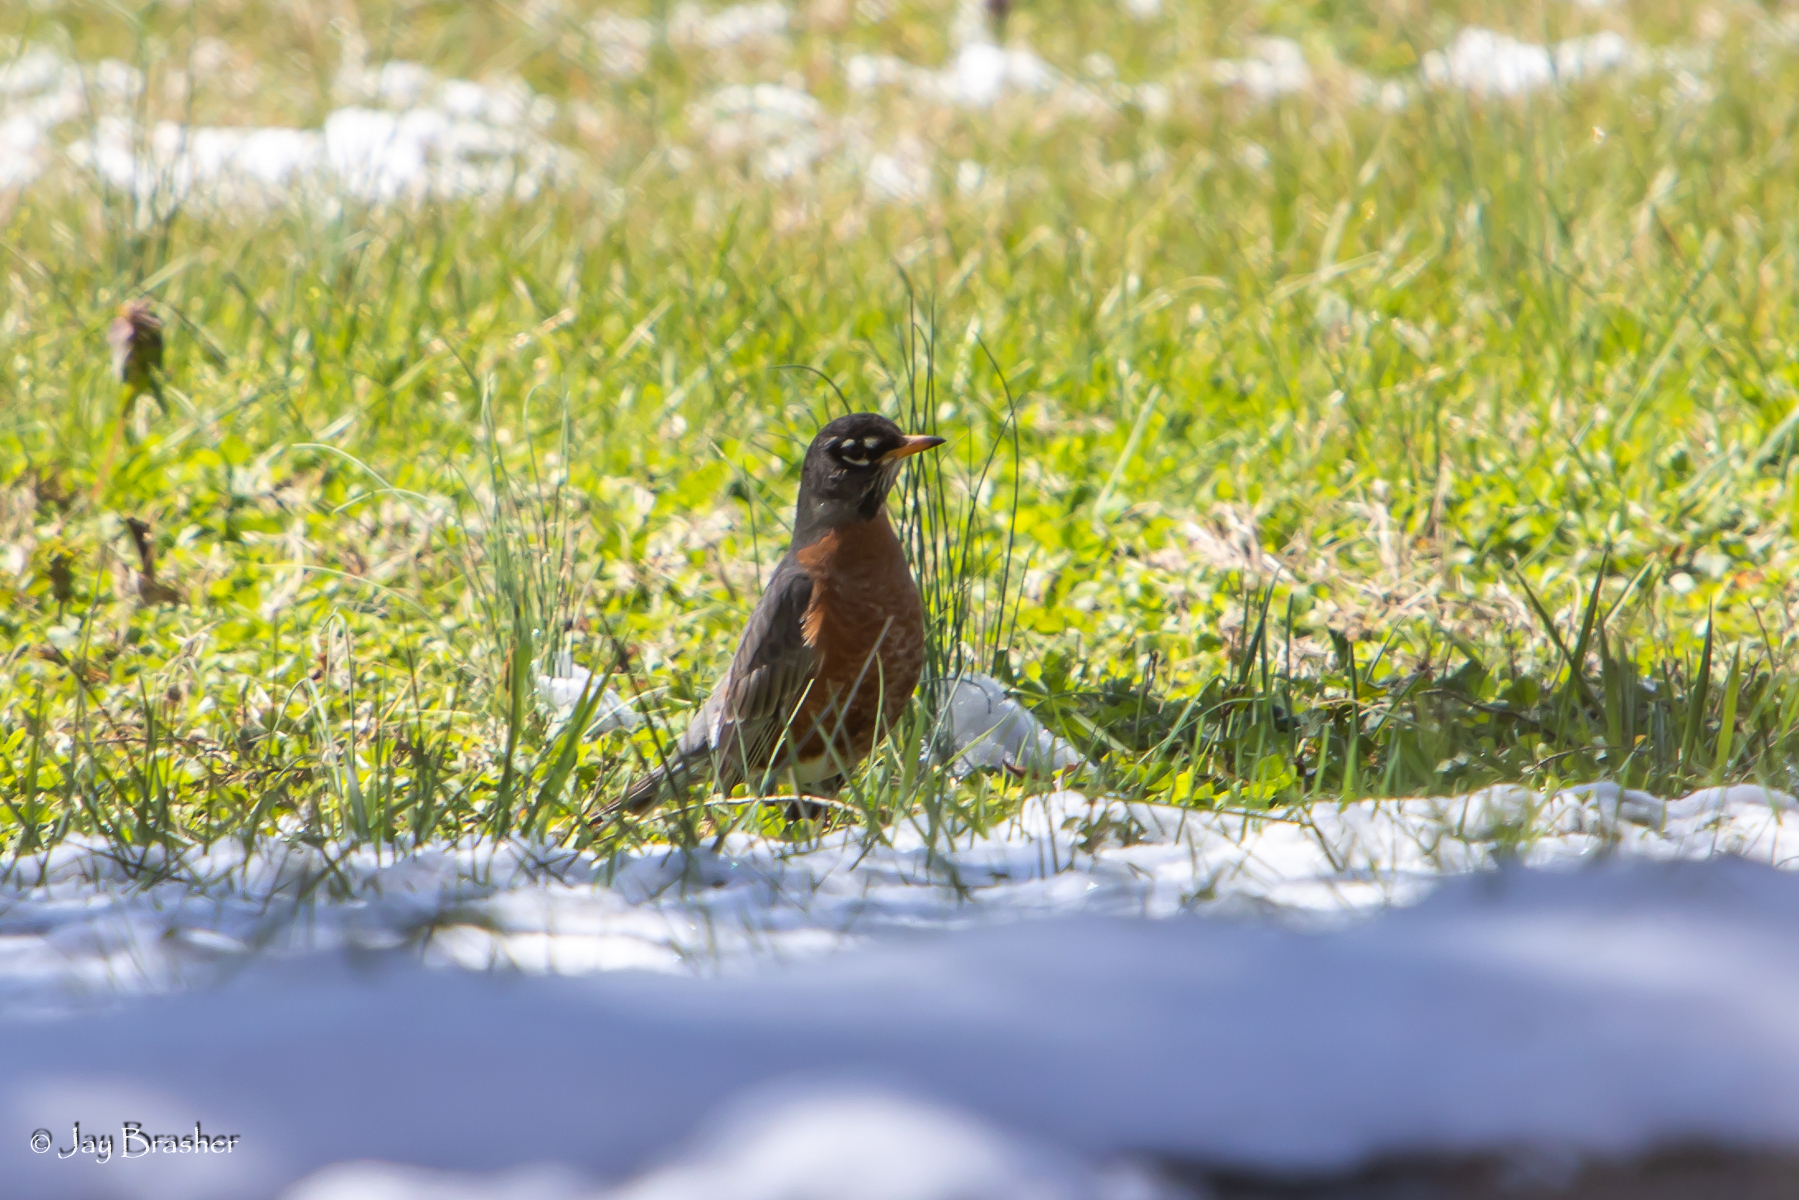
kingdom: Animalia
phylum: Chordata
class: Aves
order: Passeriformes
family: Turdidae
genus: Turdus
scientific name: Turdus migratorius
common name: American robin
